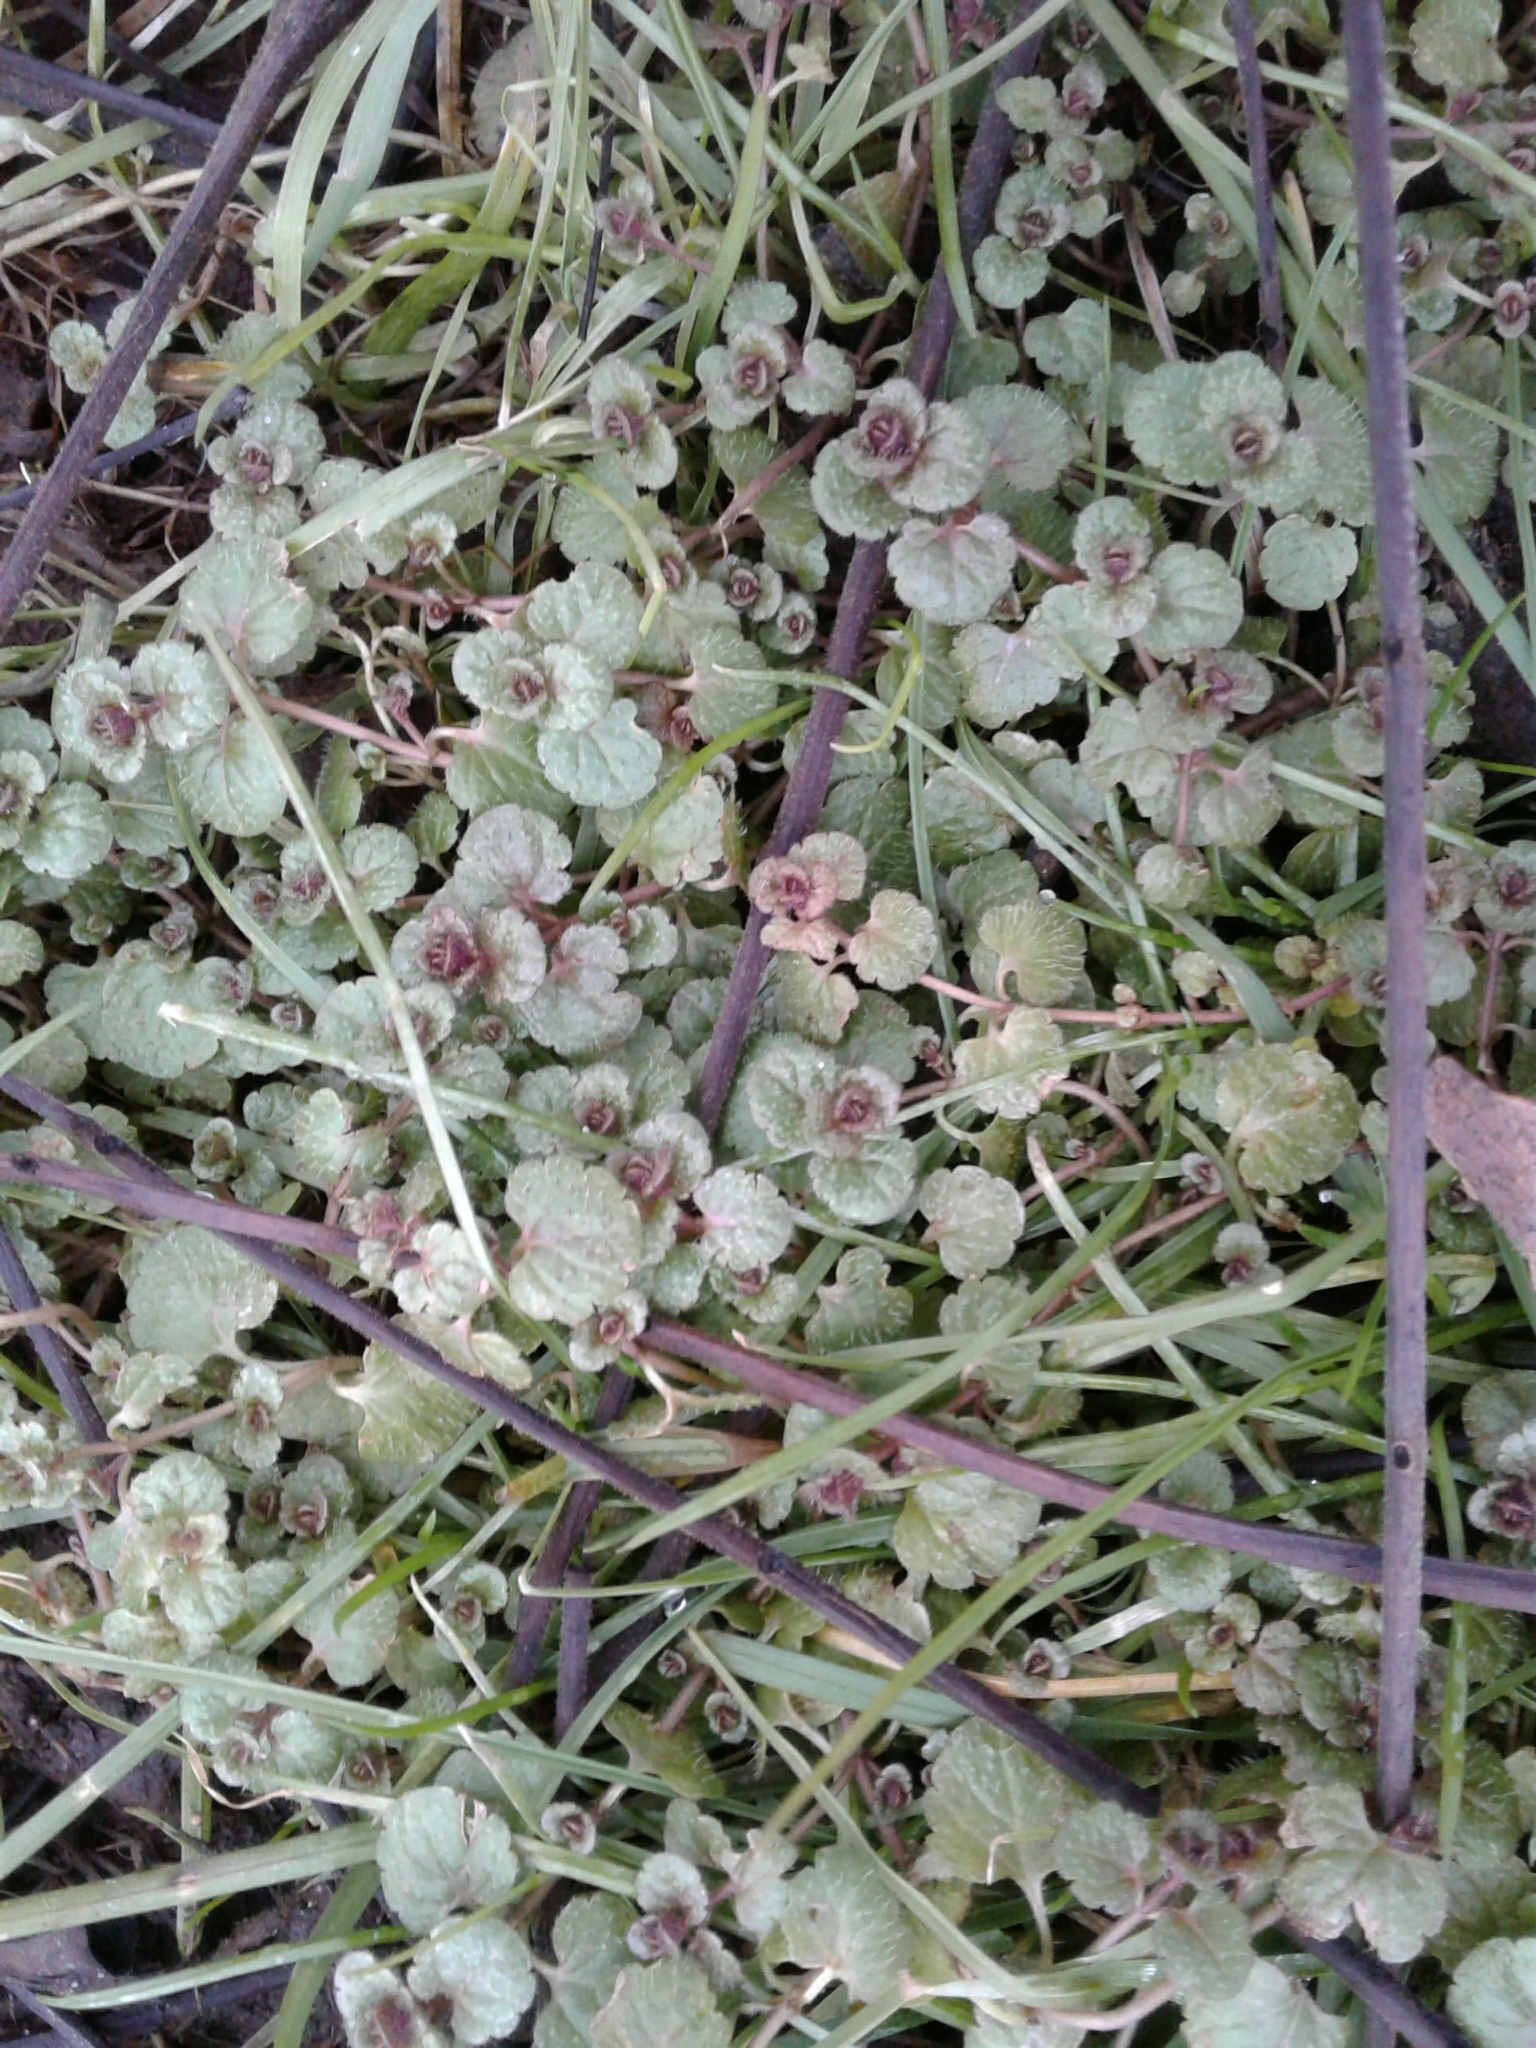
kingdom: Plantae
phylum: Tracheophyta
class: Magnoliopsida
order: Lamiales
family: Lamiaceae
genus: Lamium
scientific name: Lamium purpureum
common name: Red dead-nettle
